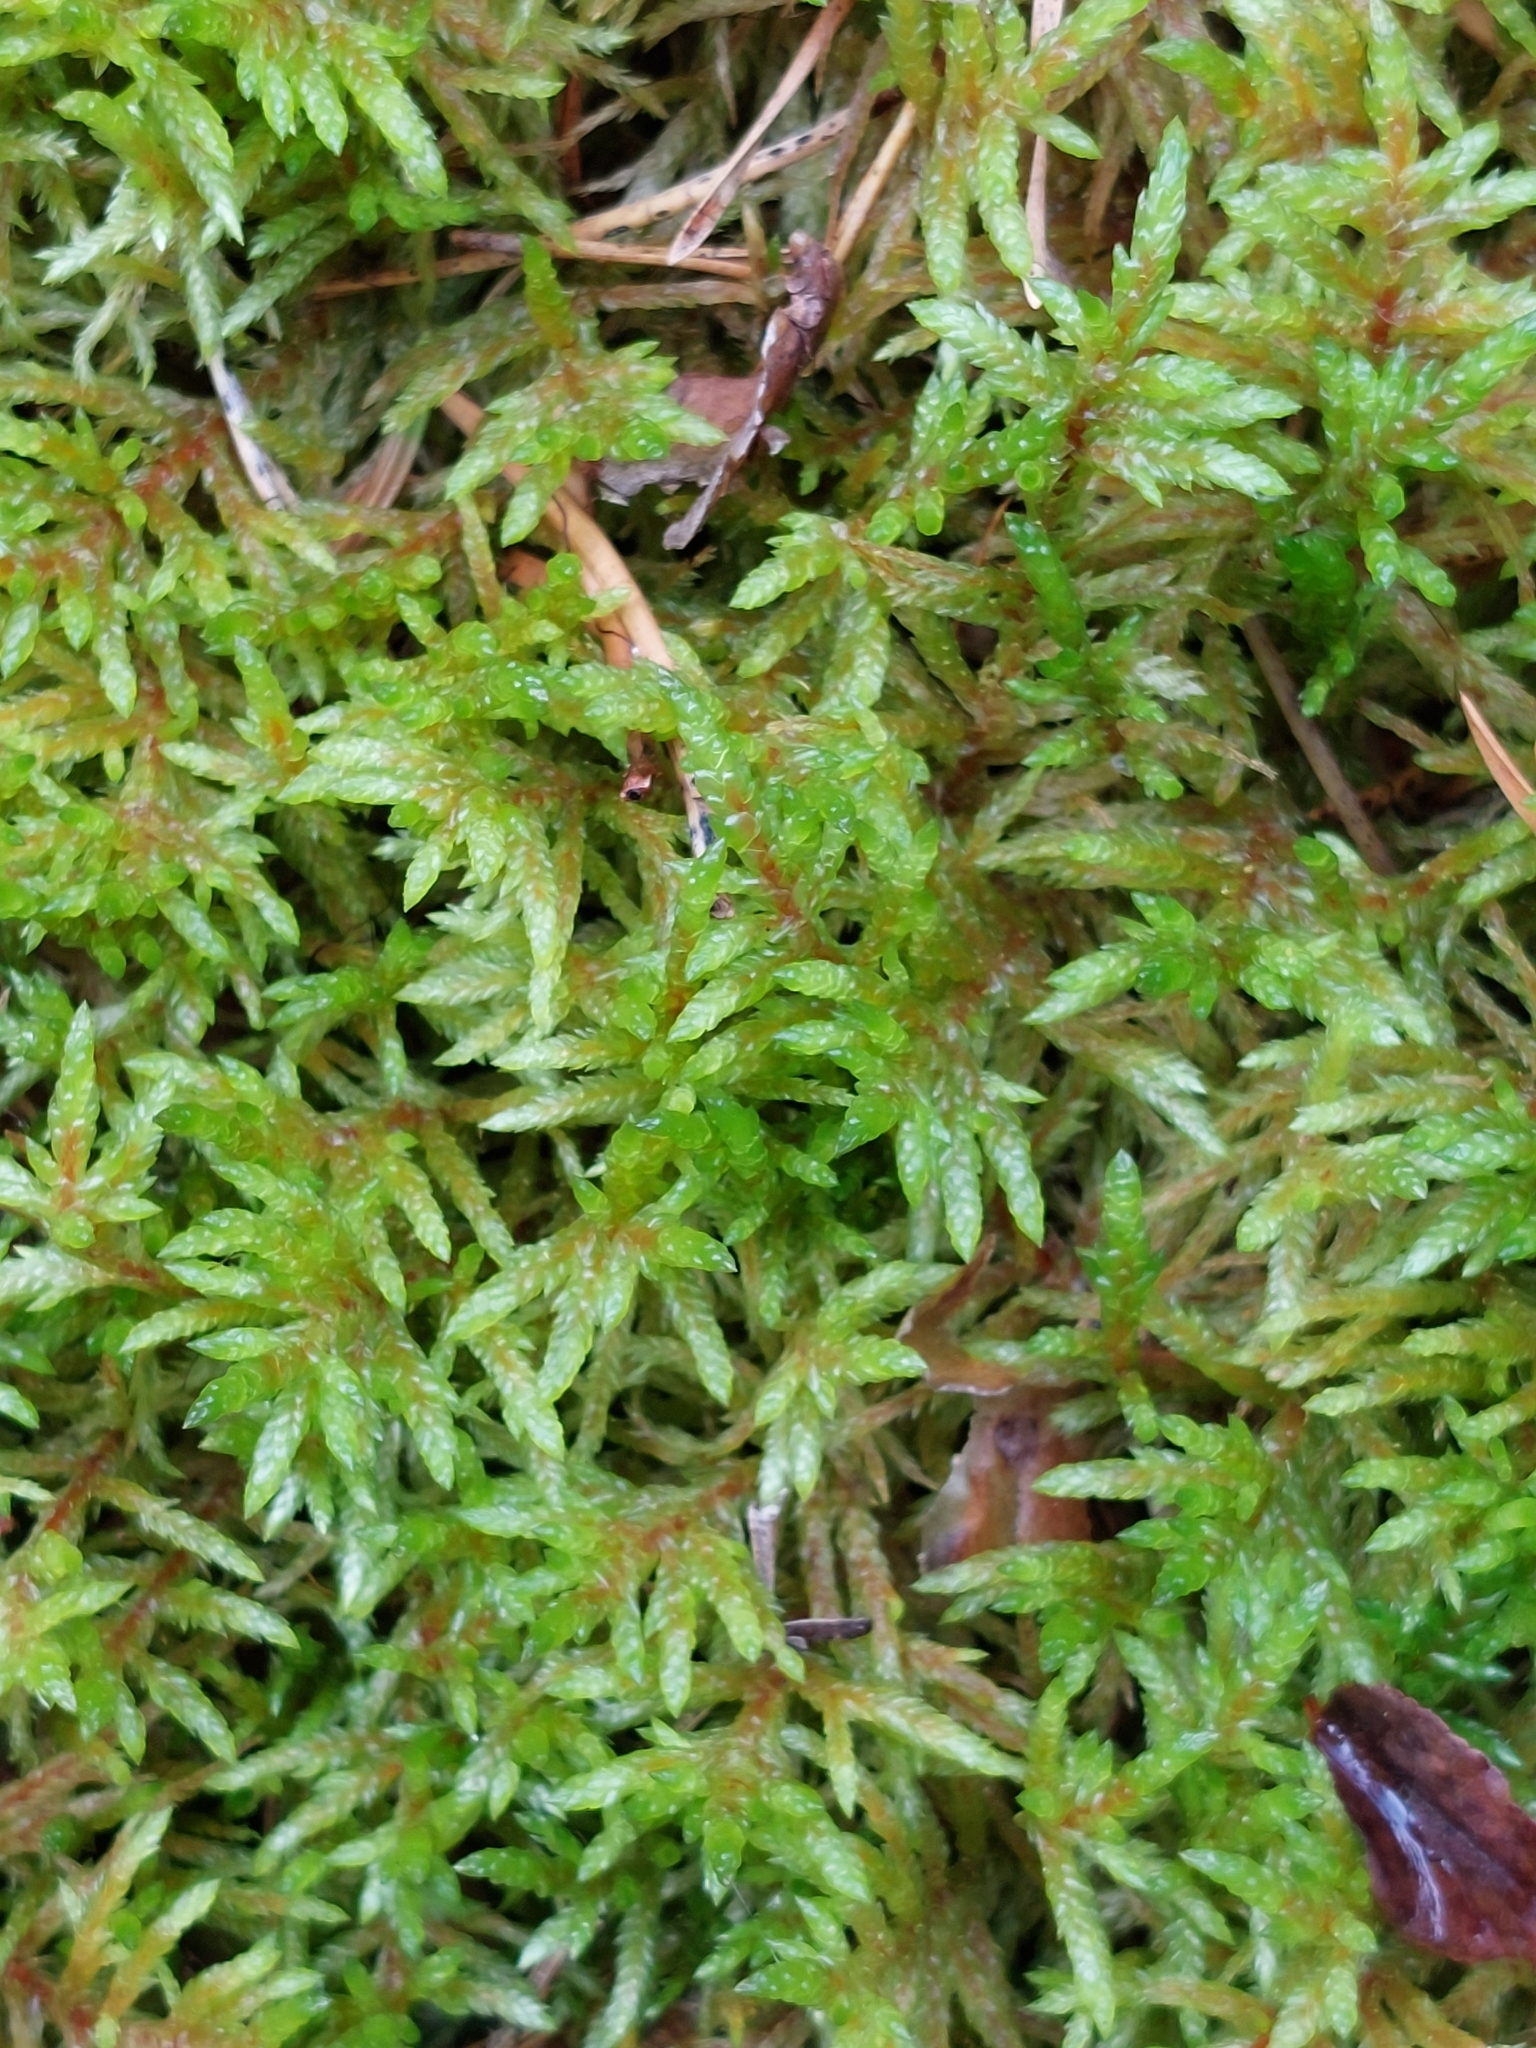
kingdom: Plantae
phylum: Bryophyta
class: Bryopsida
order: Hypnales
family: Hylocomiaceae
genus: Pleurozium
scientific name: Pleurozium schreberi
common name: Red-stemmed feather moss
